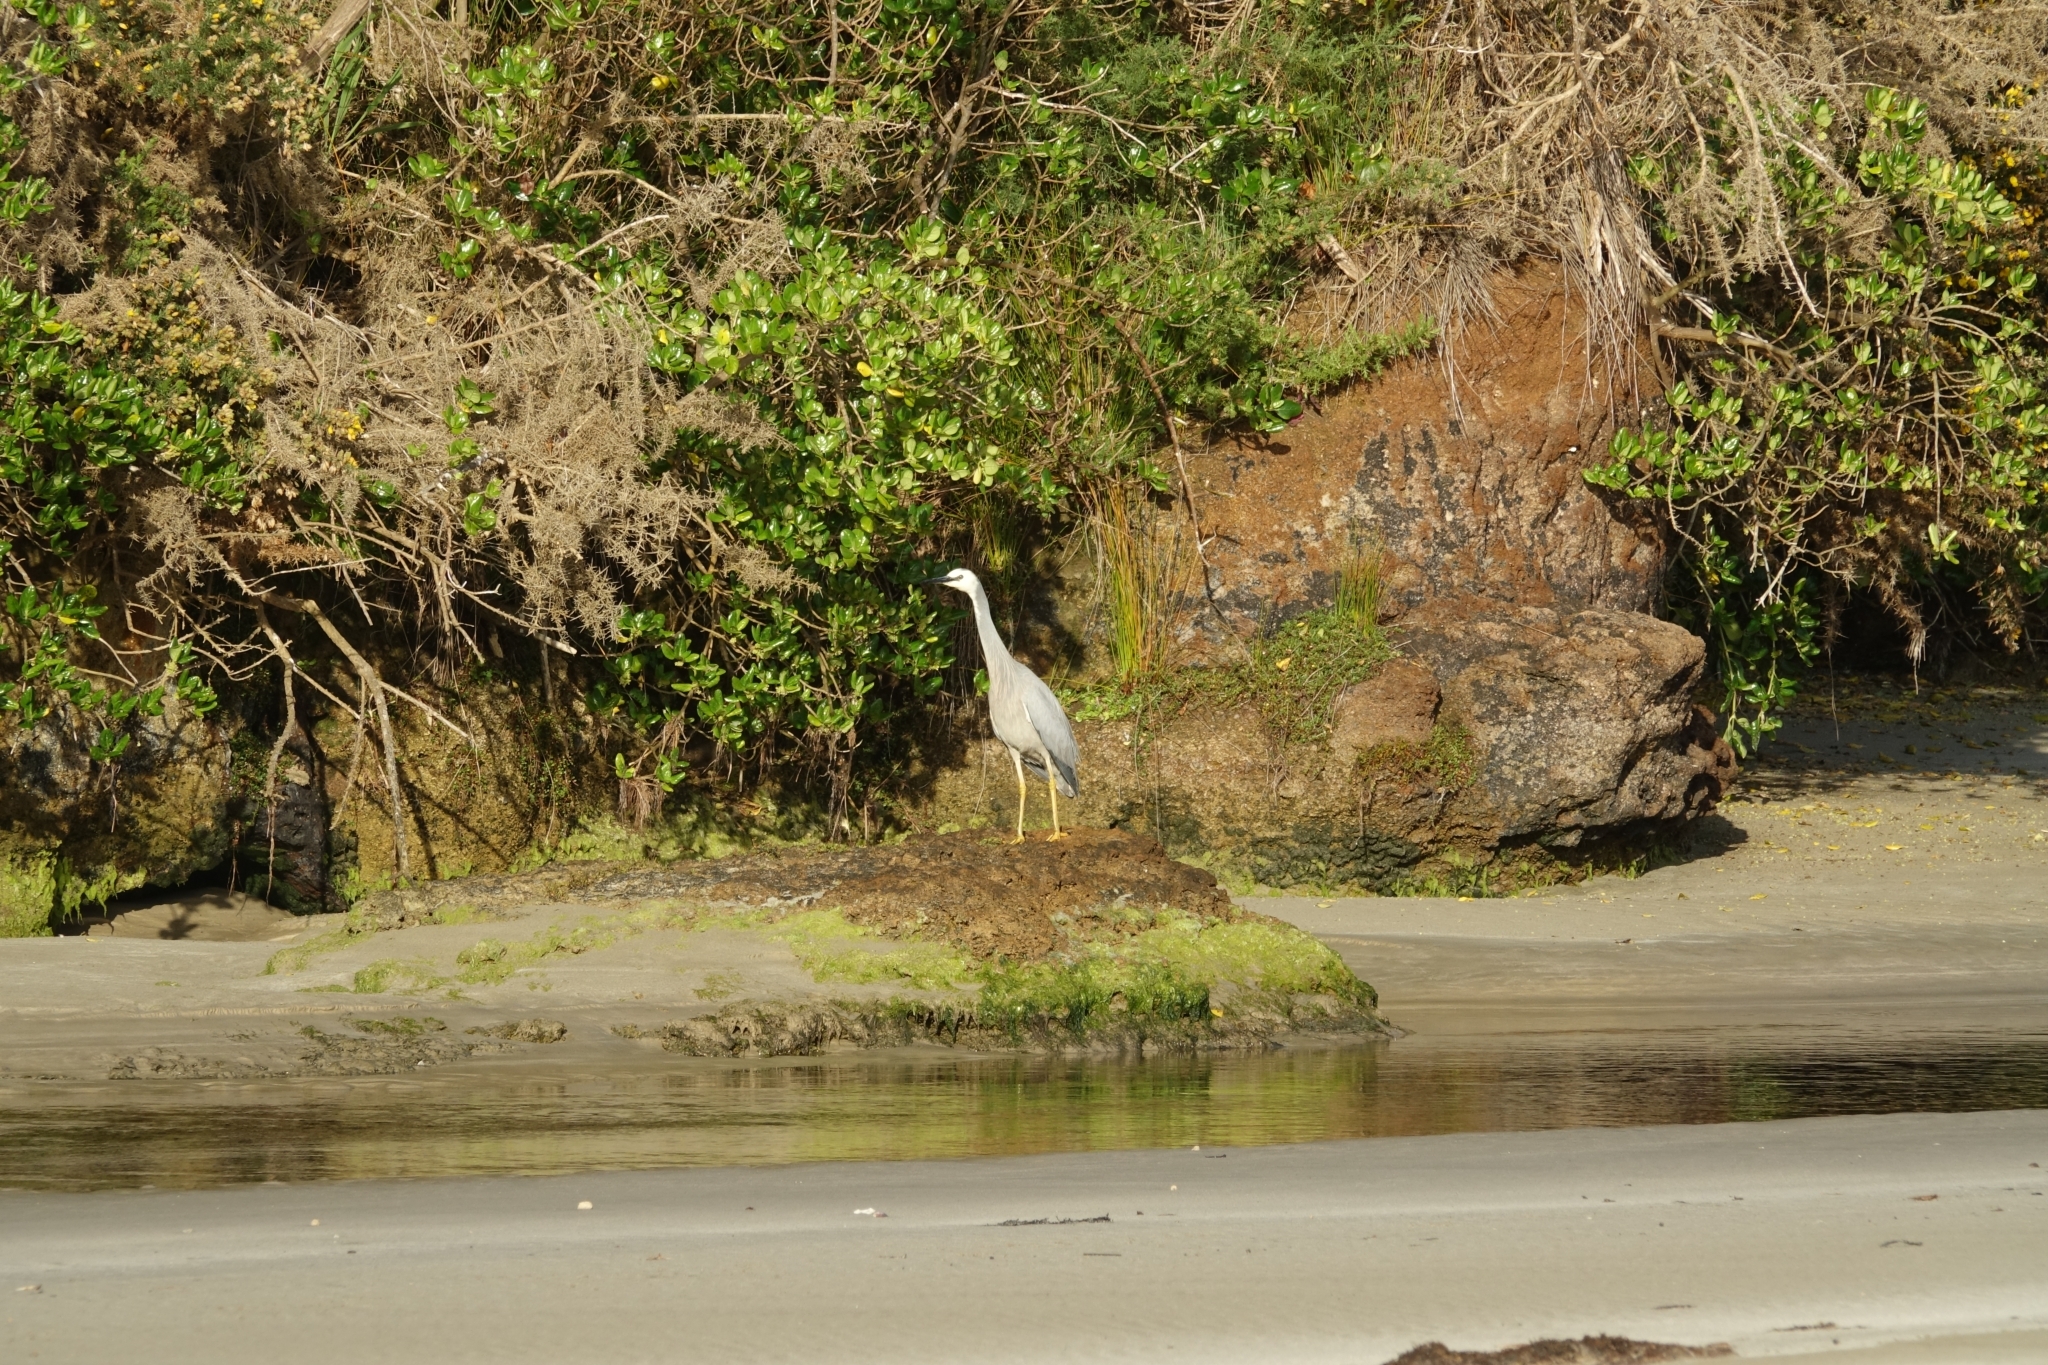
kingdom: Animalia
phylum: Chordata
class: Aves
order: Pelecaniformes
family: Ardeidae
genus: Egretta
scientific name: Egretta novaehollandiae
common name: White-faced heron
